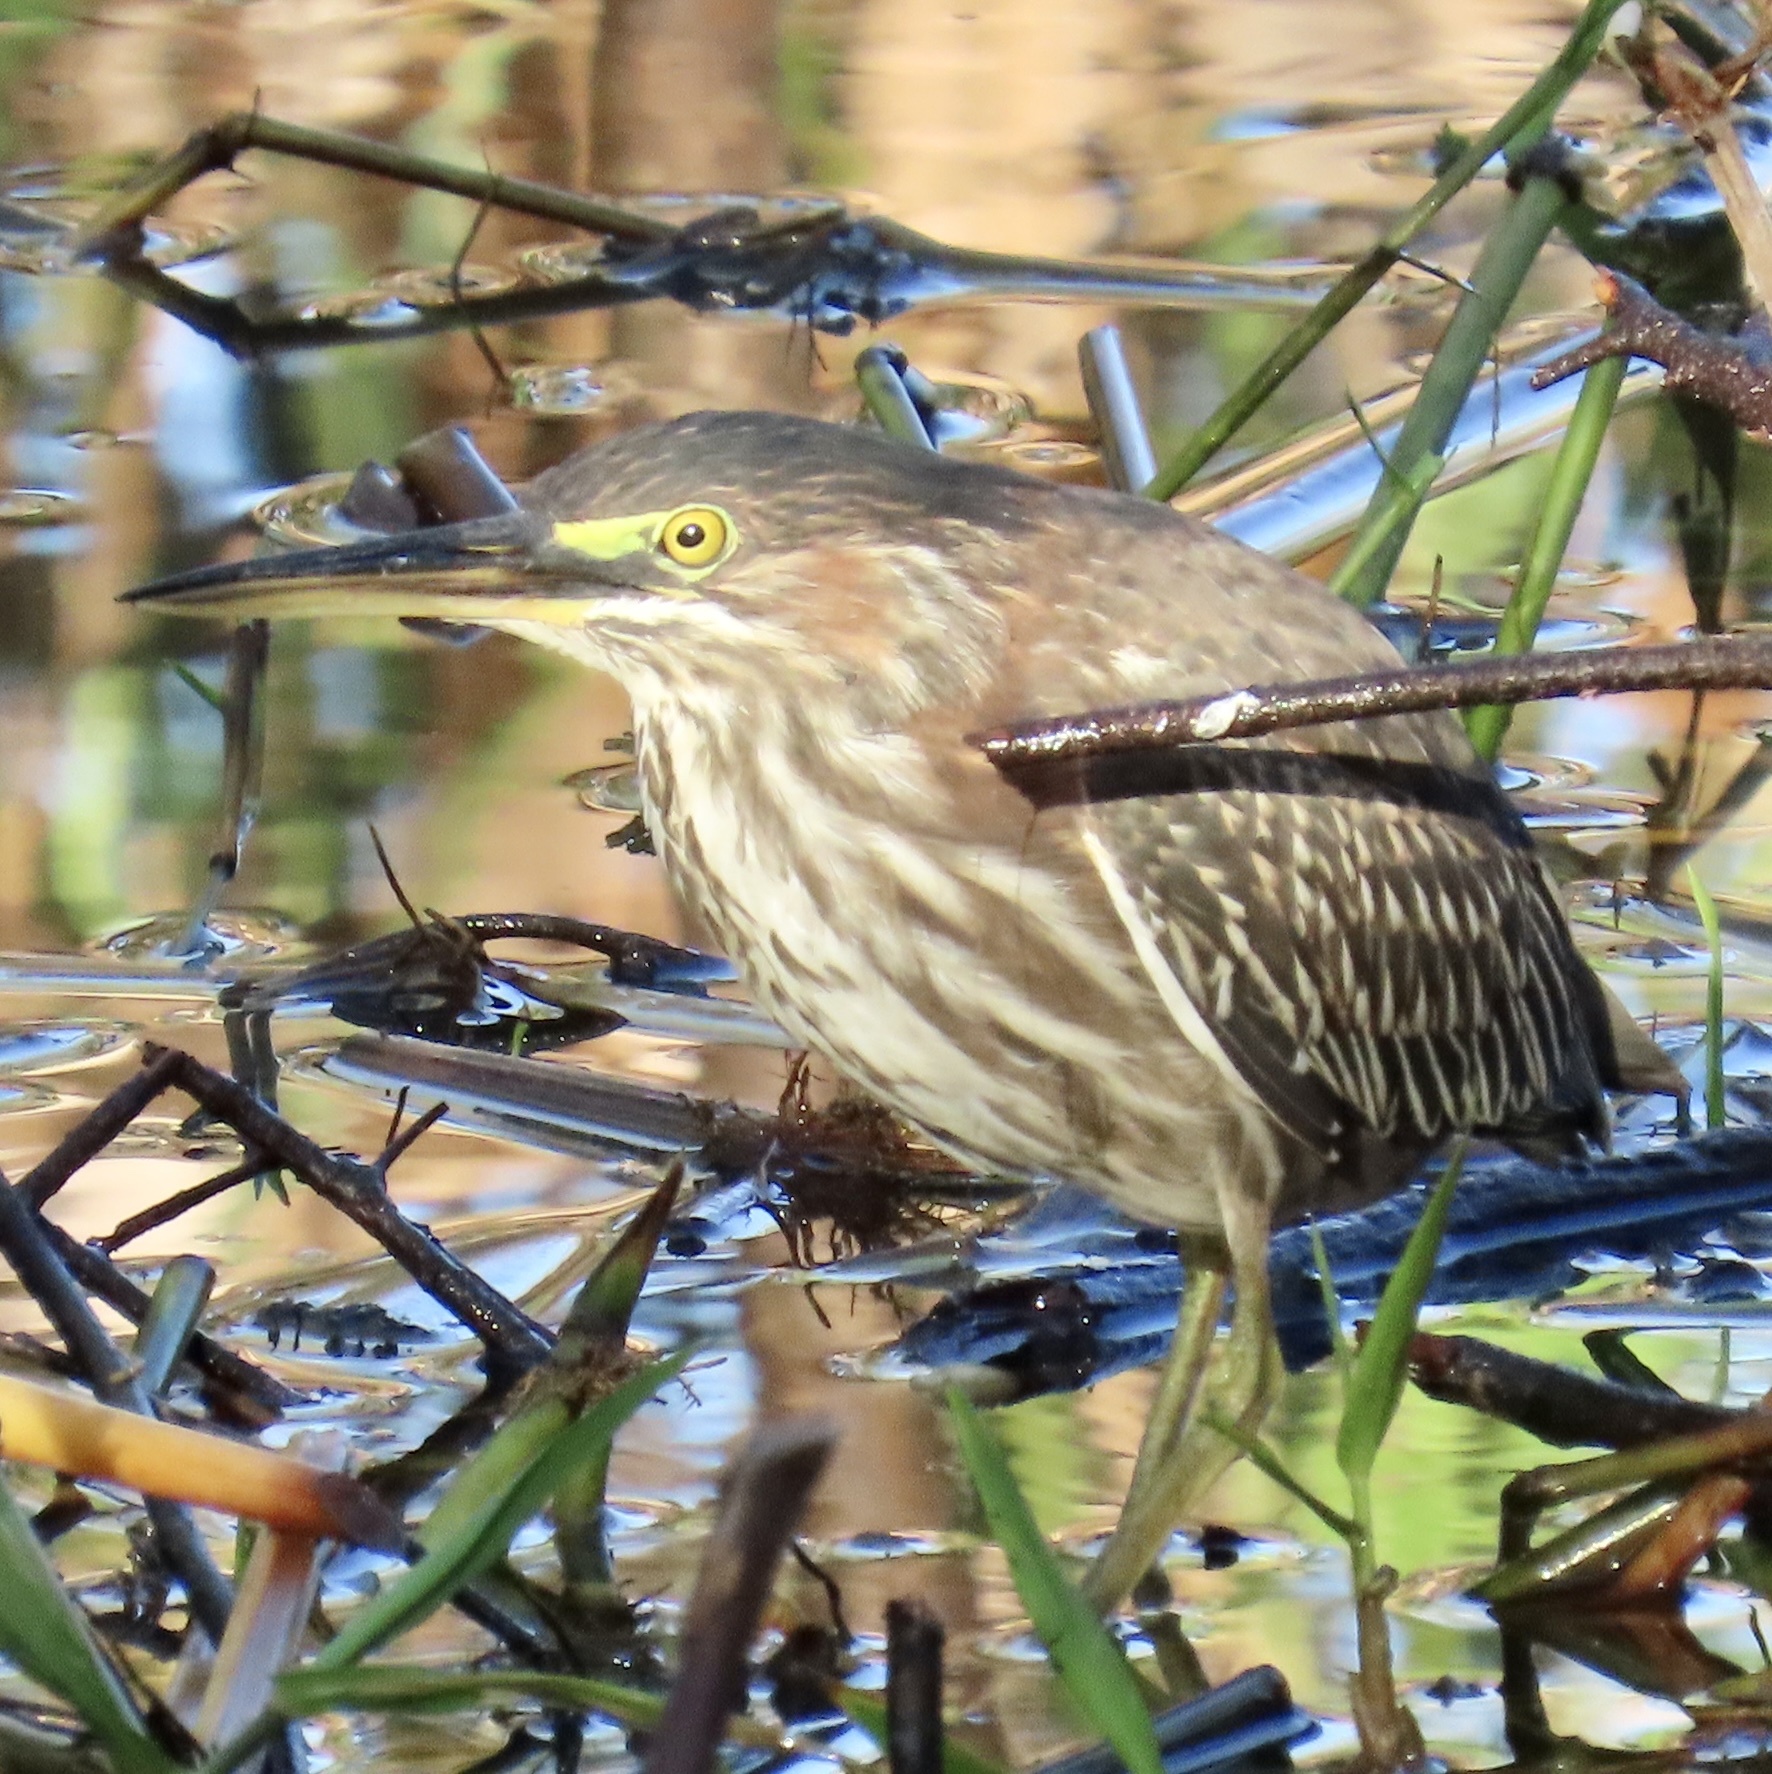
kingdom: Animalia
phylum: Chordata
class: Aves
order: Pelecaniformes
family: Ardeidae
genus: Butorides
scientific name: Butorides virescens
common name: Green heron
